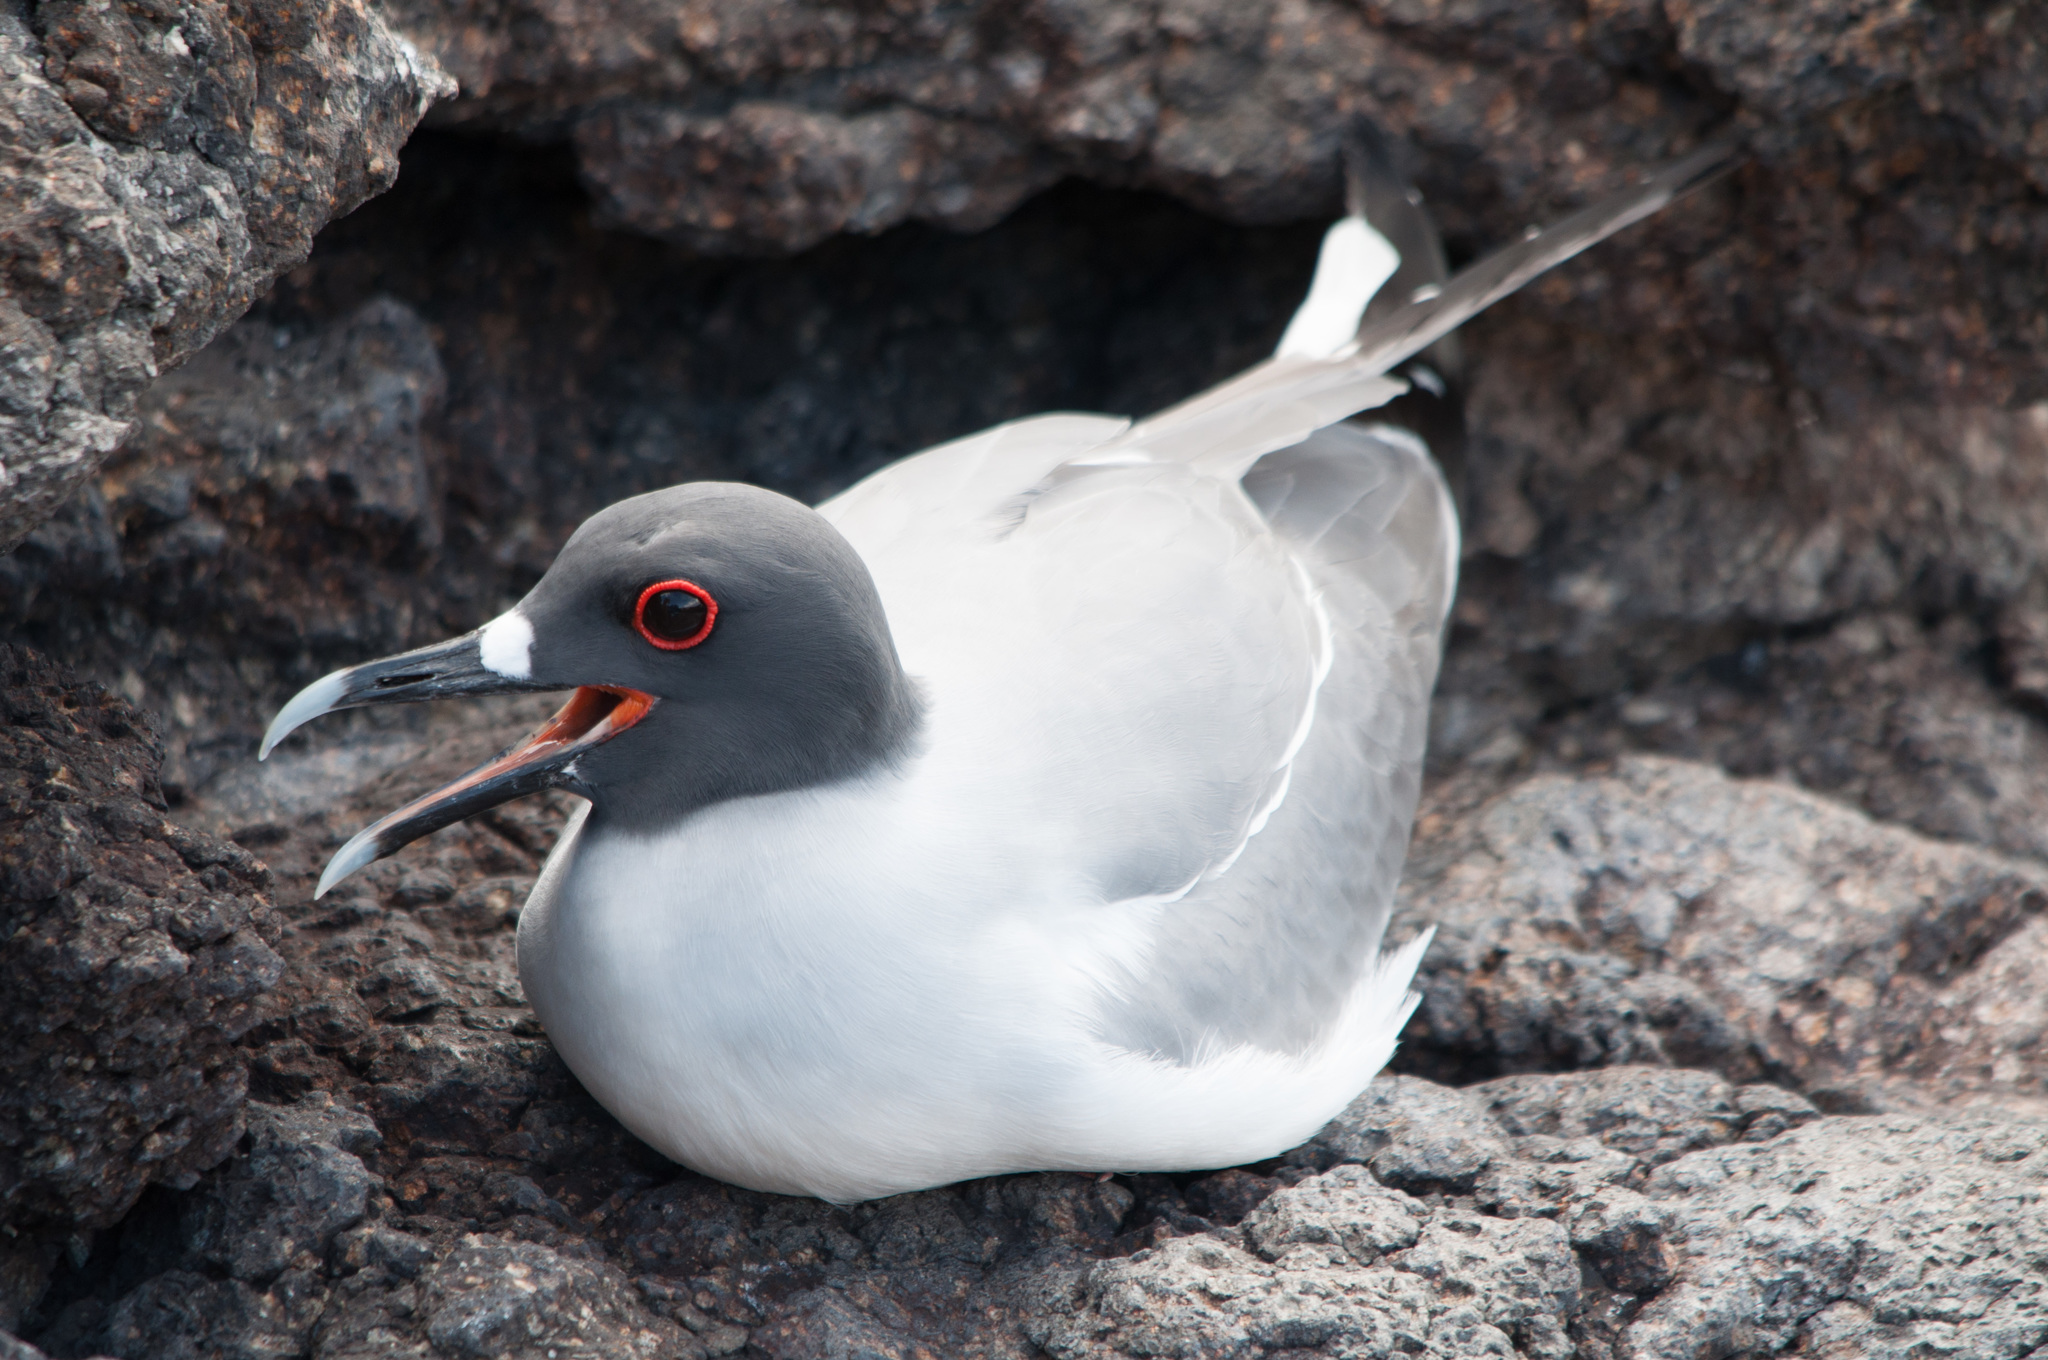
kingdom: Animalia
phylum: Chordata
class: Aves
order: Charadriiformes
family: Laridae
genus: Creagrus
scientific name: Creagrus furcatus
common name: Swallow-tailed gull
